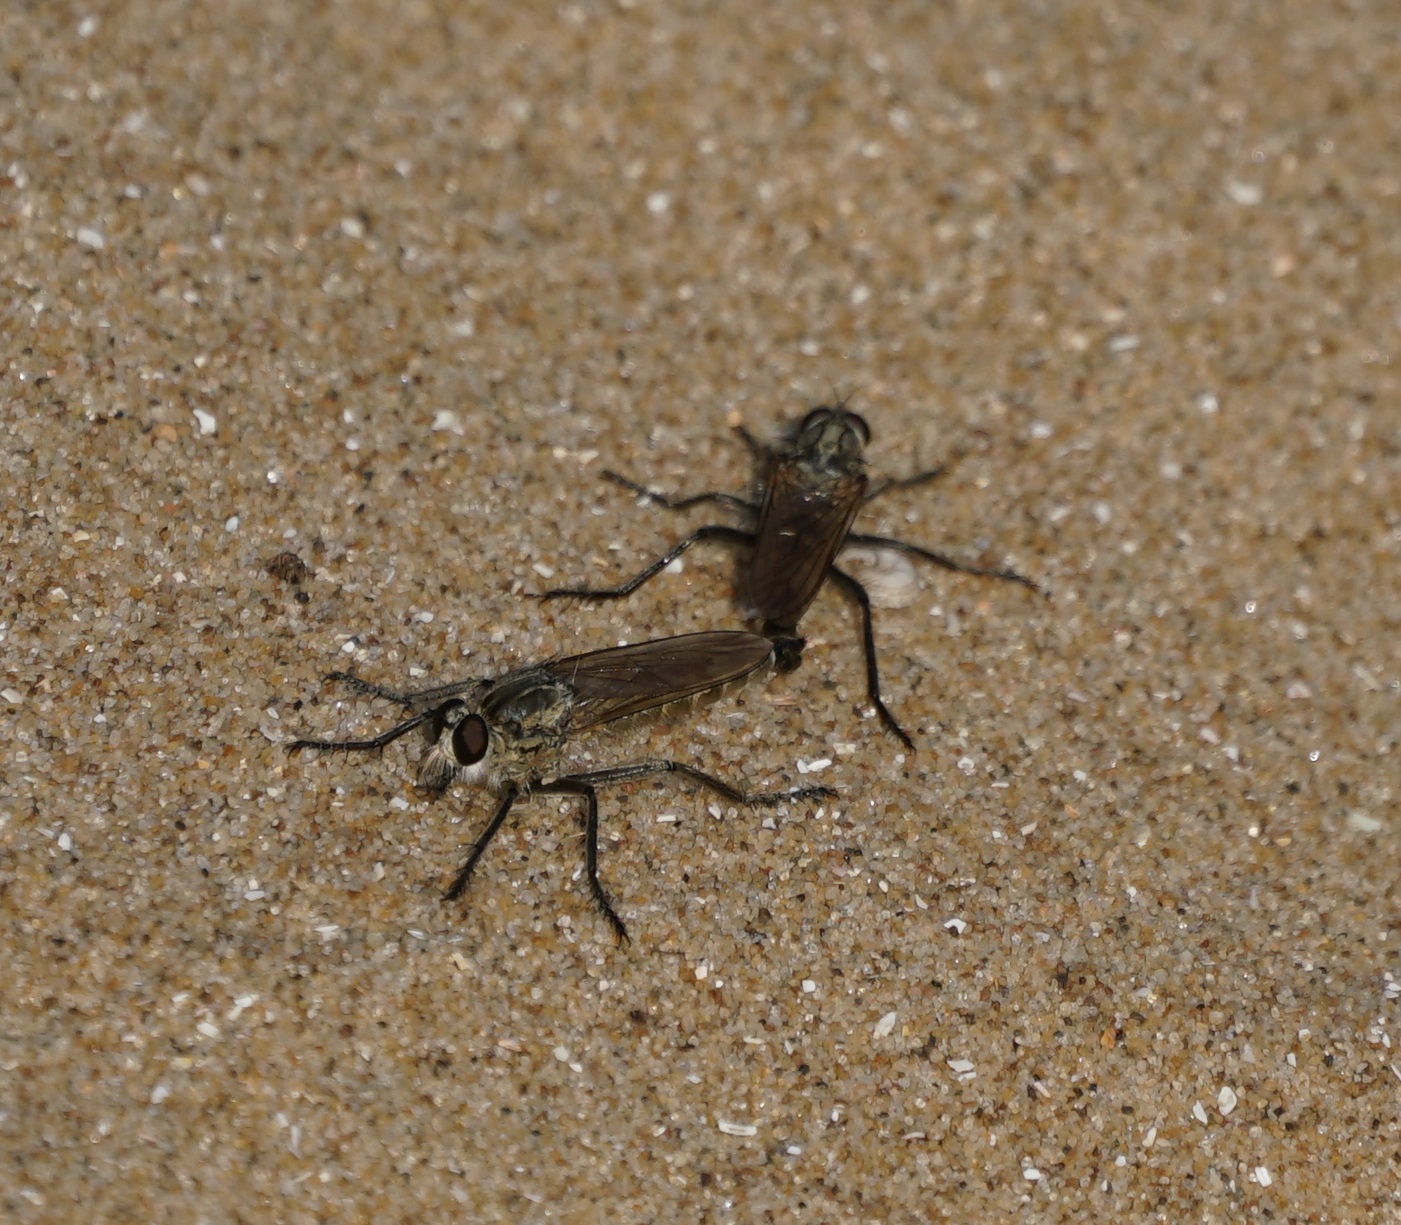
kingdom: Animalia
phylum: Arthropoda
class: Insecta
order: Diptera
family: Asilidae
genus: Philonicus
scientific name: Philonicus albiceps
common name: Dune robberfly
